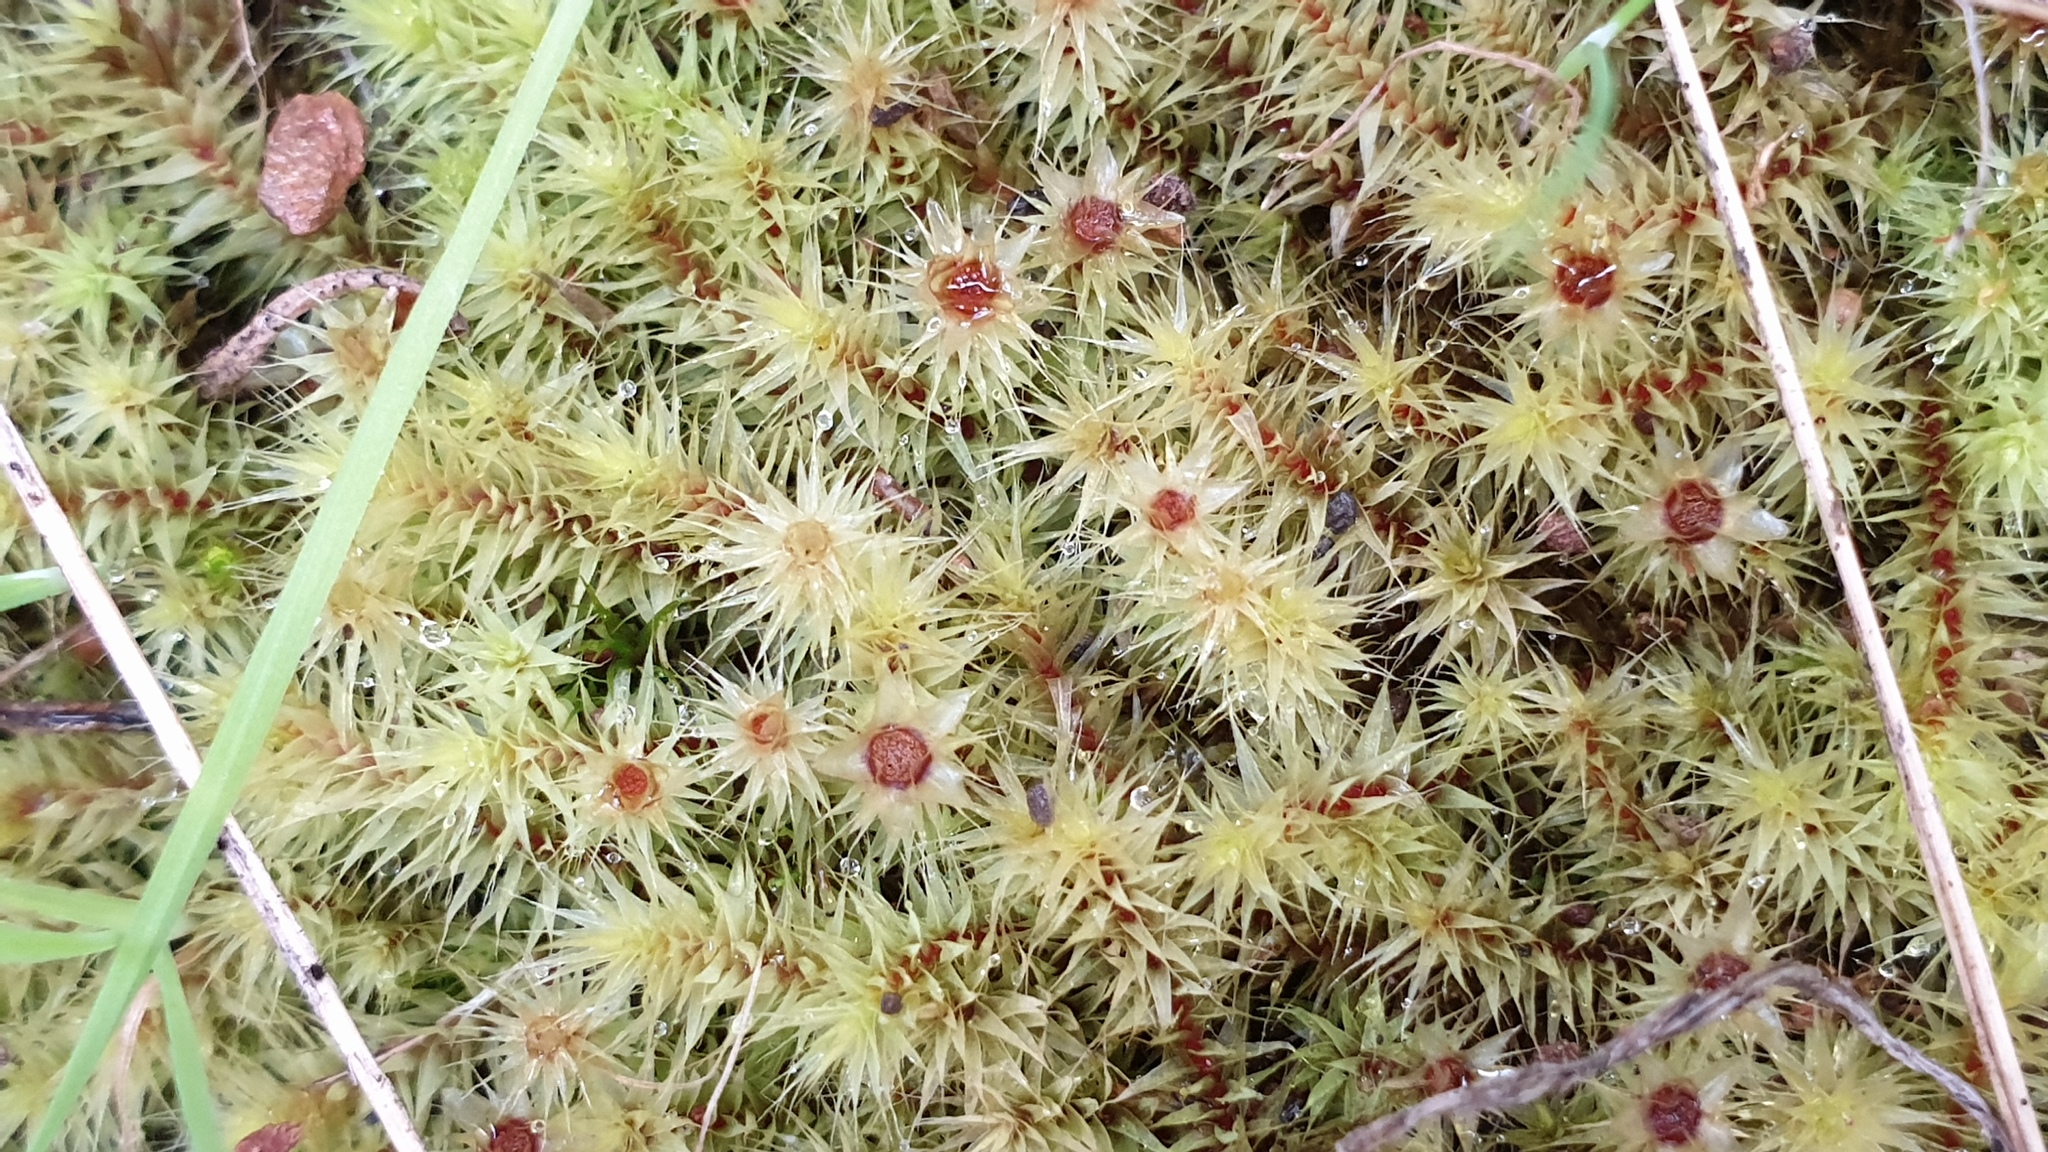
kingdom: Plantae
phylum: Bryophyta
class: Bryopsida
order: Bartramiales
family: Bartramiaceae
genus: Breutelia
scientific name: Breutelia affinis
